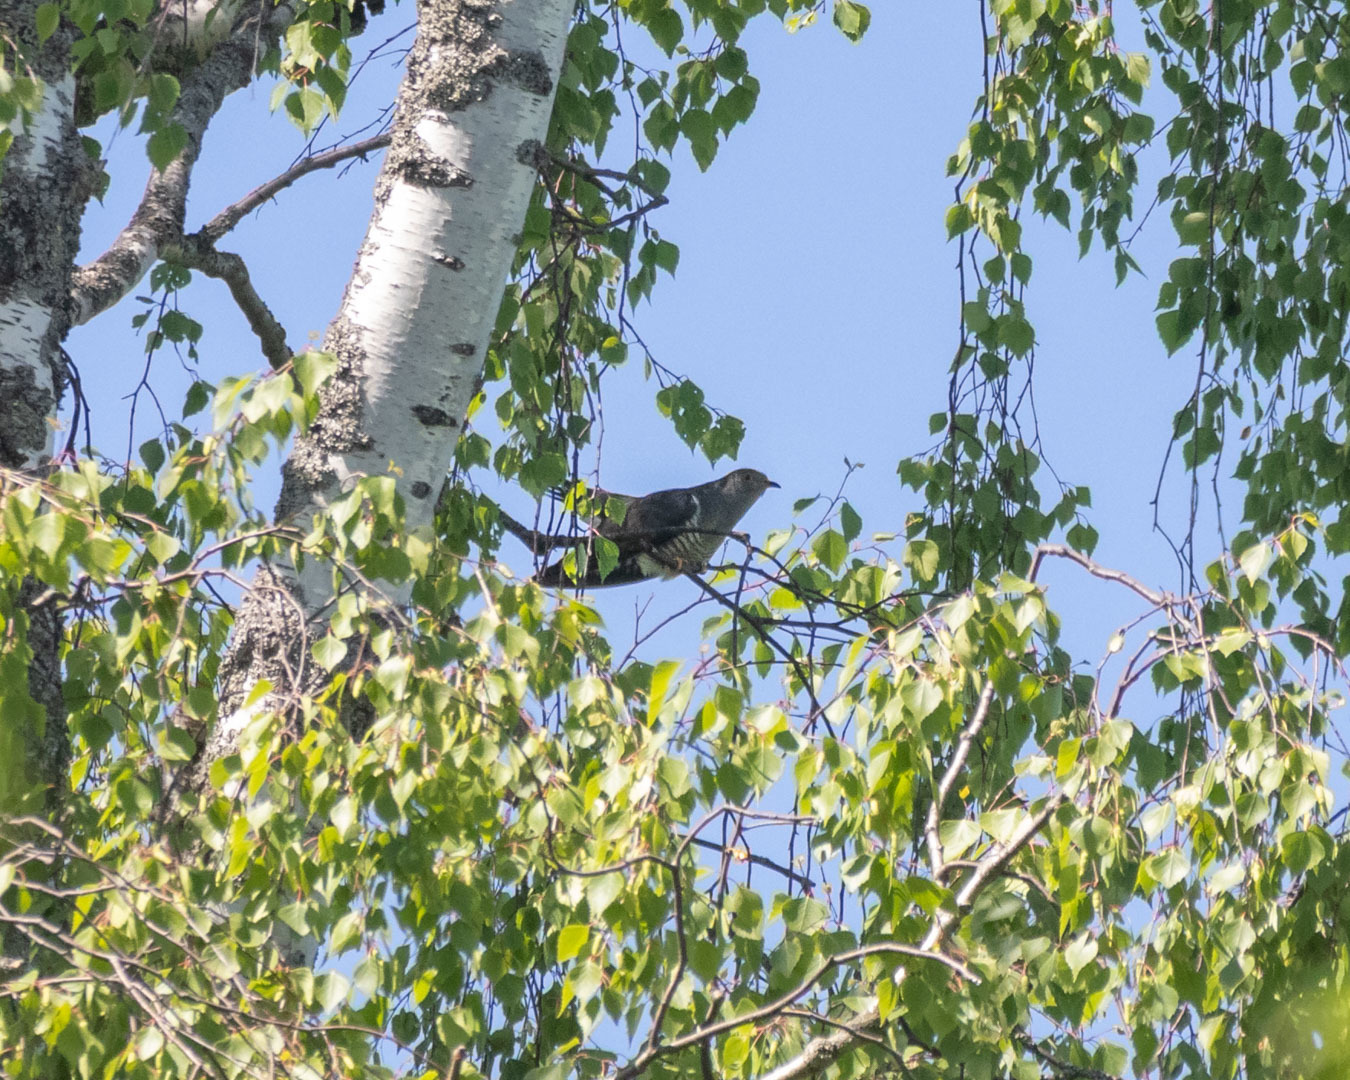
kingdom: Animalia
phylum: Chordata
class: Aves
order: Cuculiformes
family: Cuculidae
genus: Cuculus
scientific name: Cuculus canorus
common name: Common cuckoo
